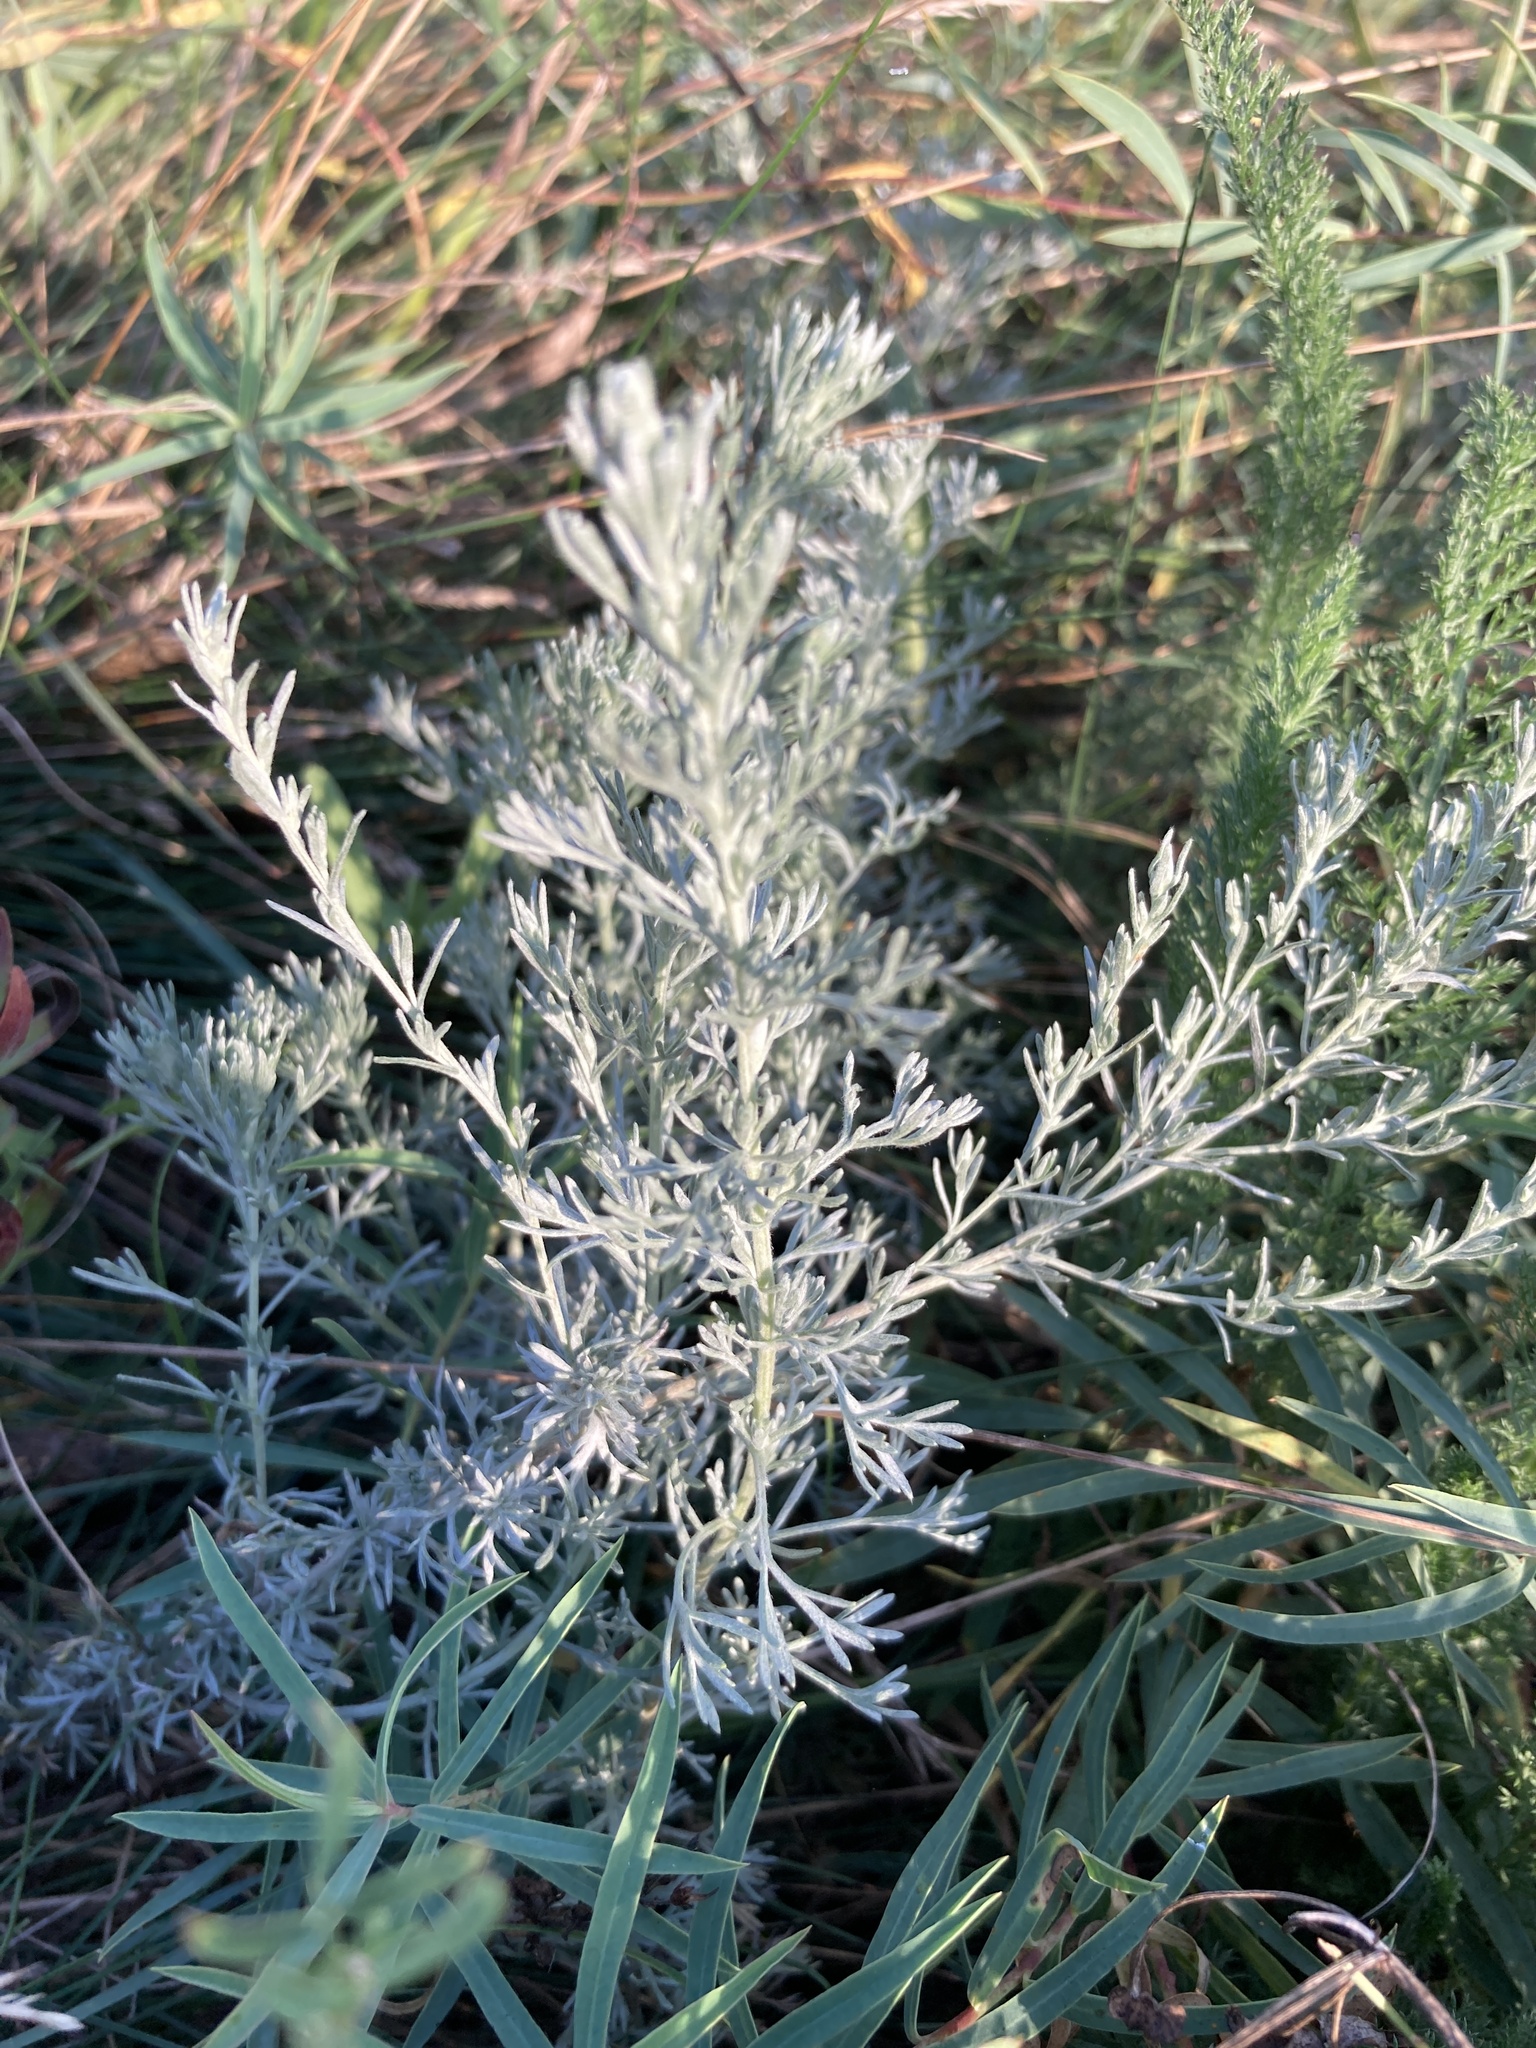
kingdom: Plantae
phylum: Tracheophyta
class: Magnoliopsida
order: Asterales
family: Asteraceae
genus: Artemisia
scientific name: Artemisia austriaca
